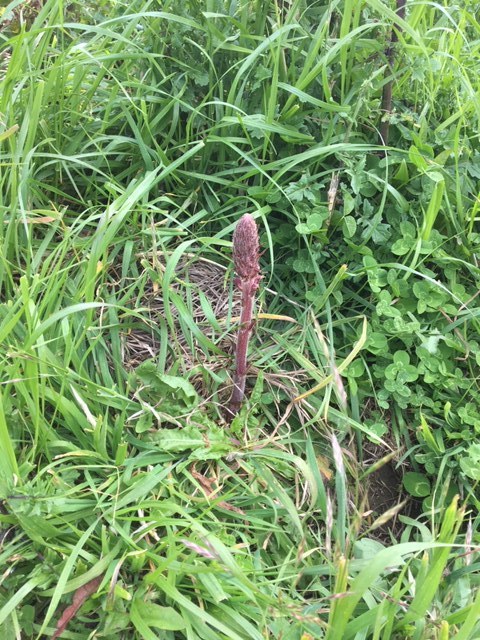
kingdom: Plantae
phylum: Tracheophyta
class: Magnoliopsida
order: Lamiales
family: Orobanchaceae
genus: Orobanche
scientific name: Orobanche minor
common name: Common broomrape
